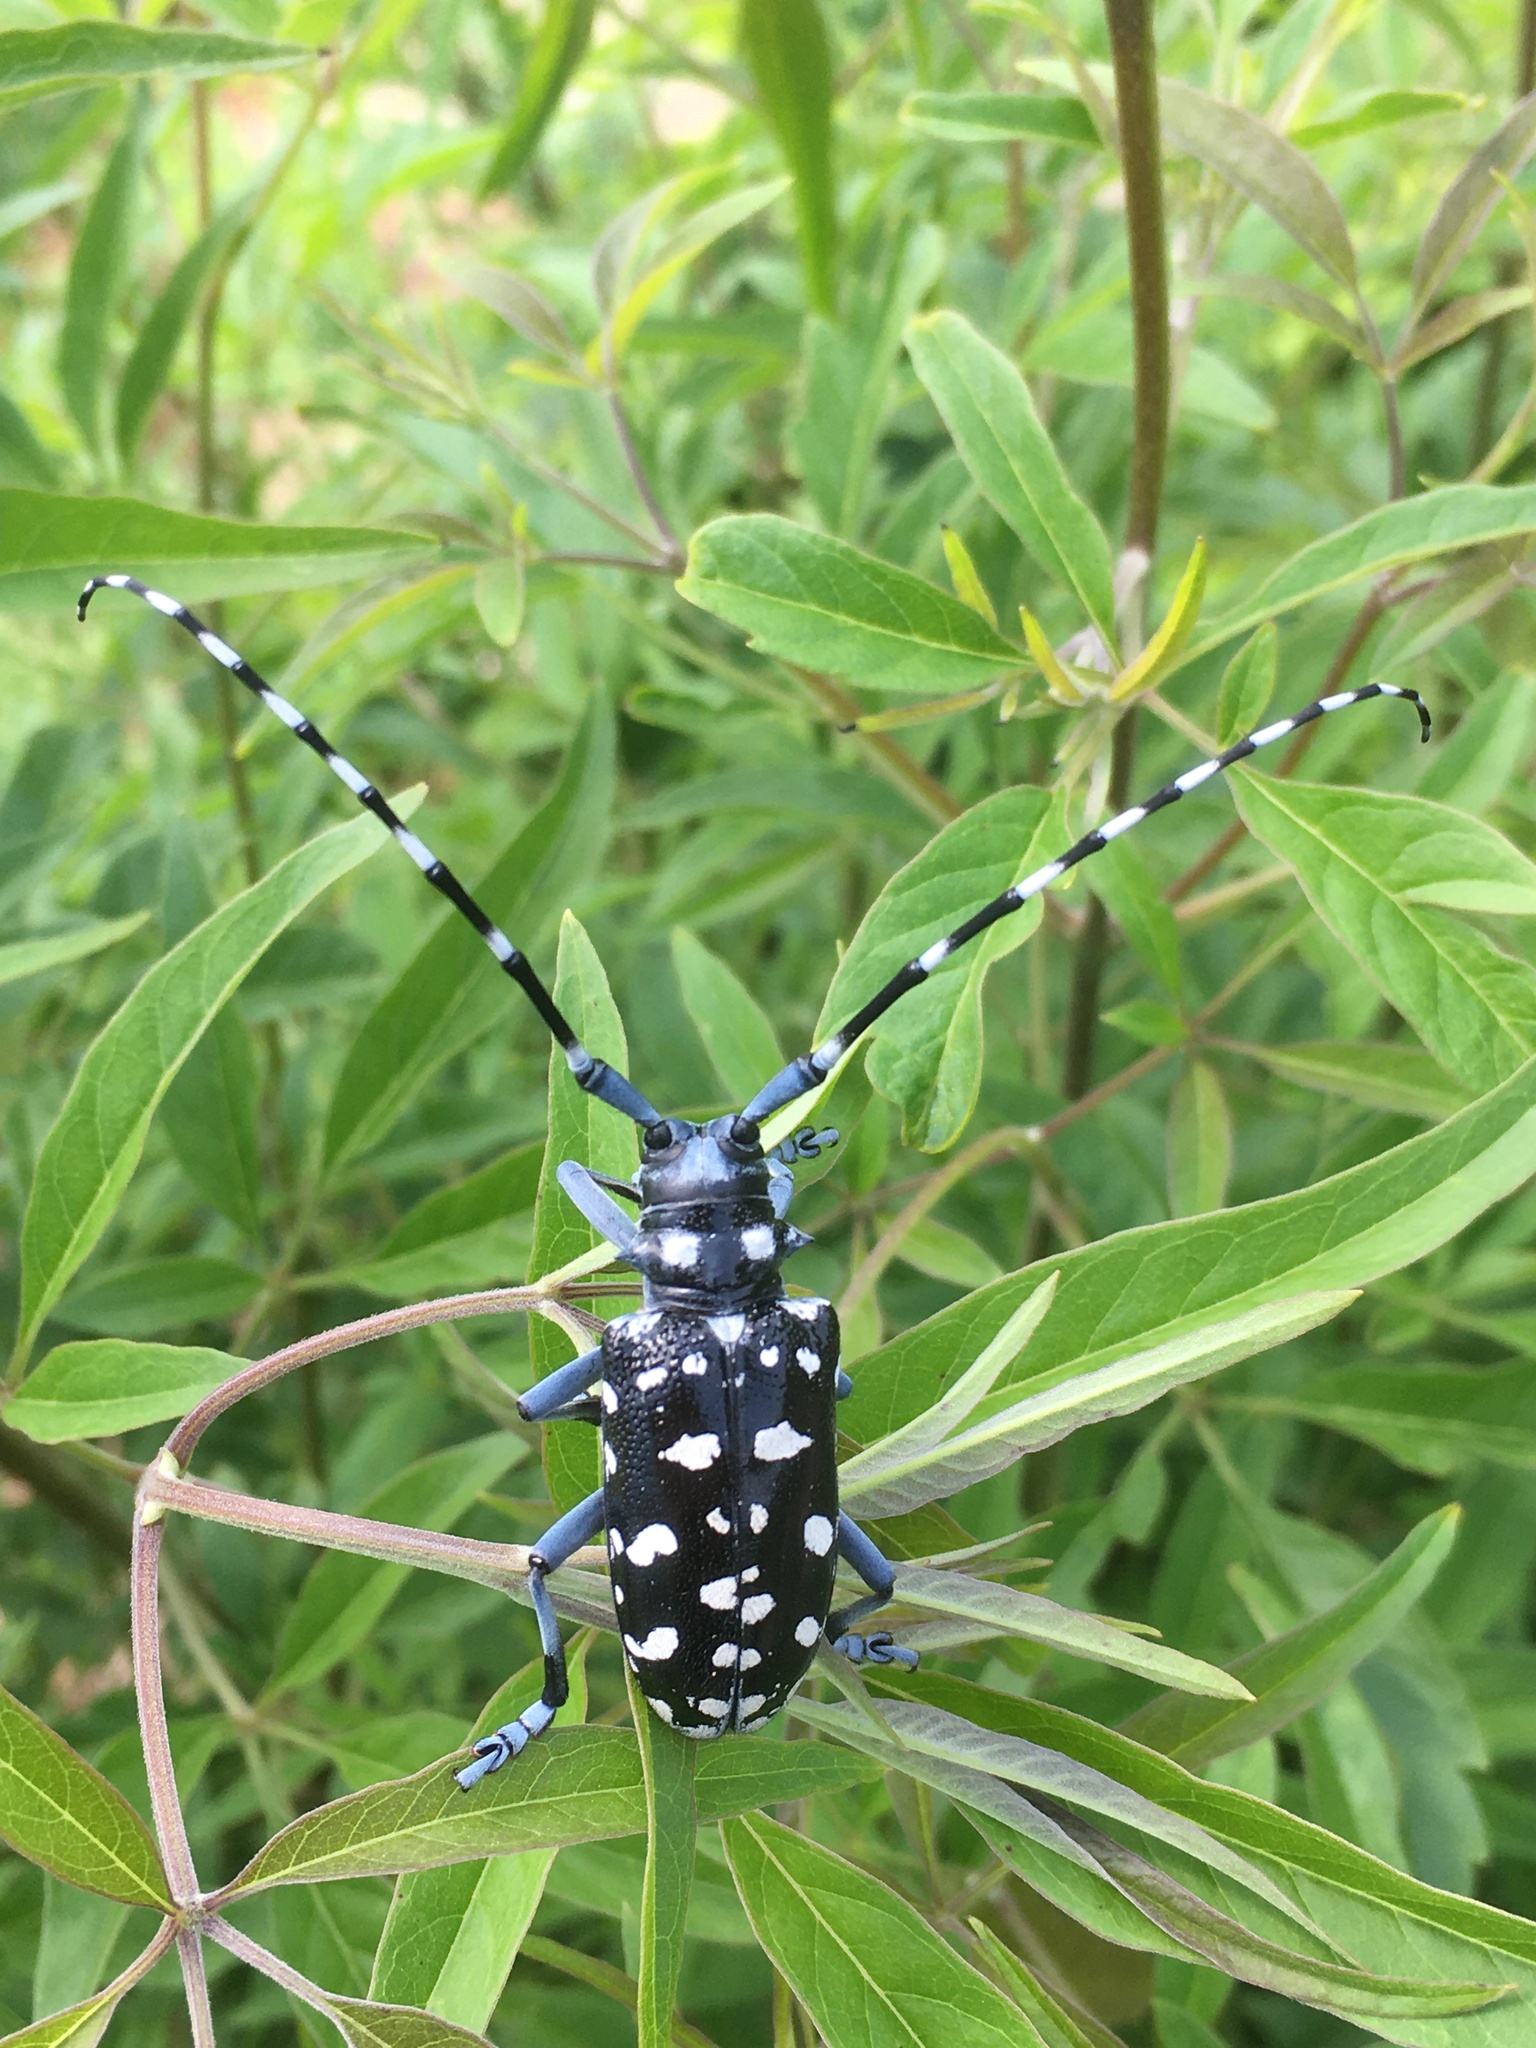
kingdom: Animalia
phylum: Arthropoda
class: Insecta
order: Coleoptera
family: Cerambycidae
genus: Anoplophora
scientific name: Anoplophora macularia
